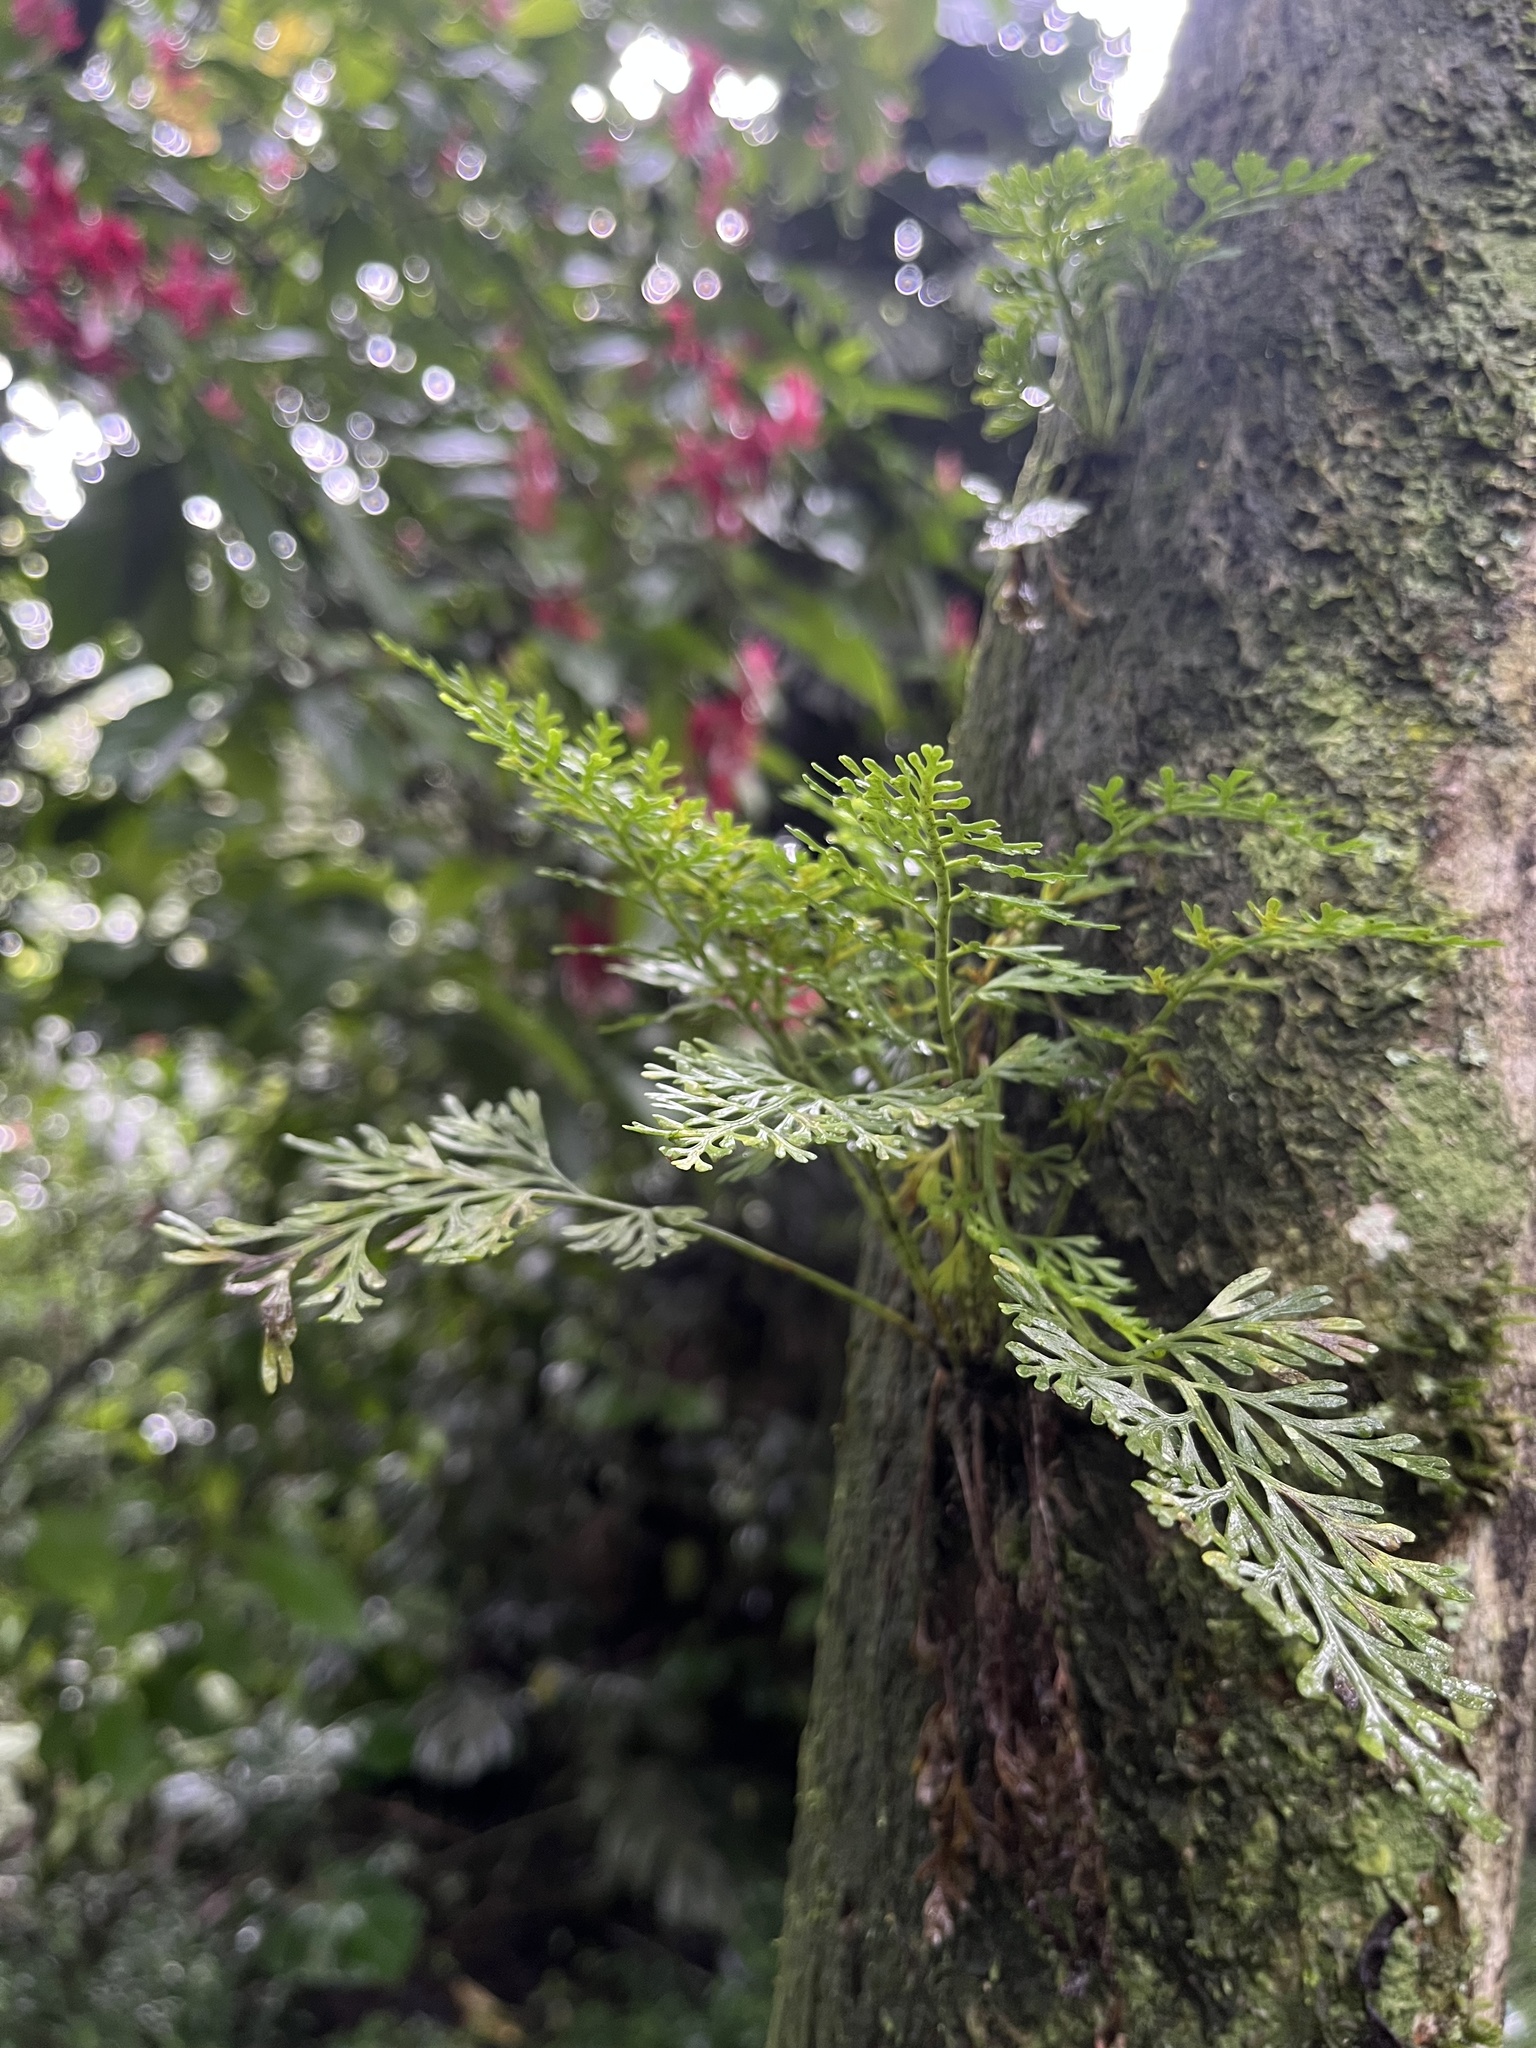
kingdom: Plantae
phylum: Tracheophyta
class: Polypodiopsida
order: Polypodiales
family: Aspleniaceae
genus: Asplenium
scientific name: Asplenium theciferum
